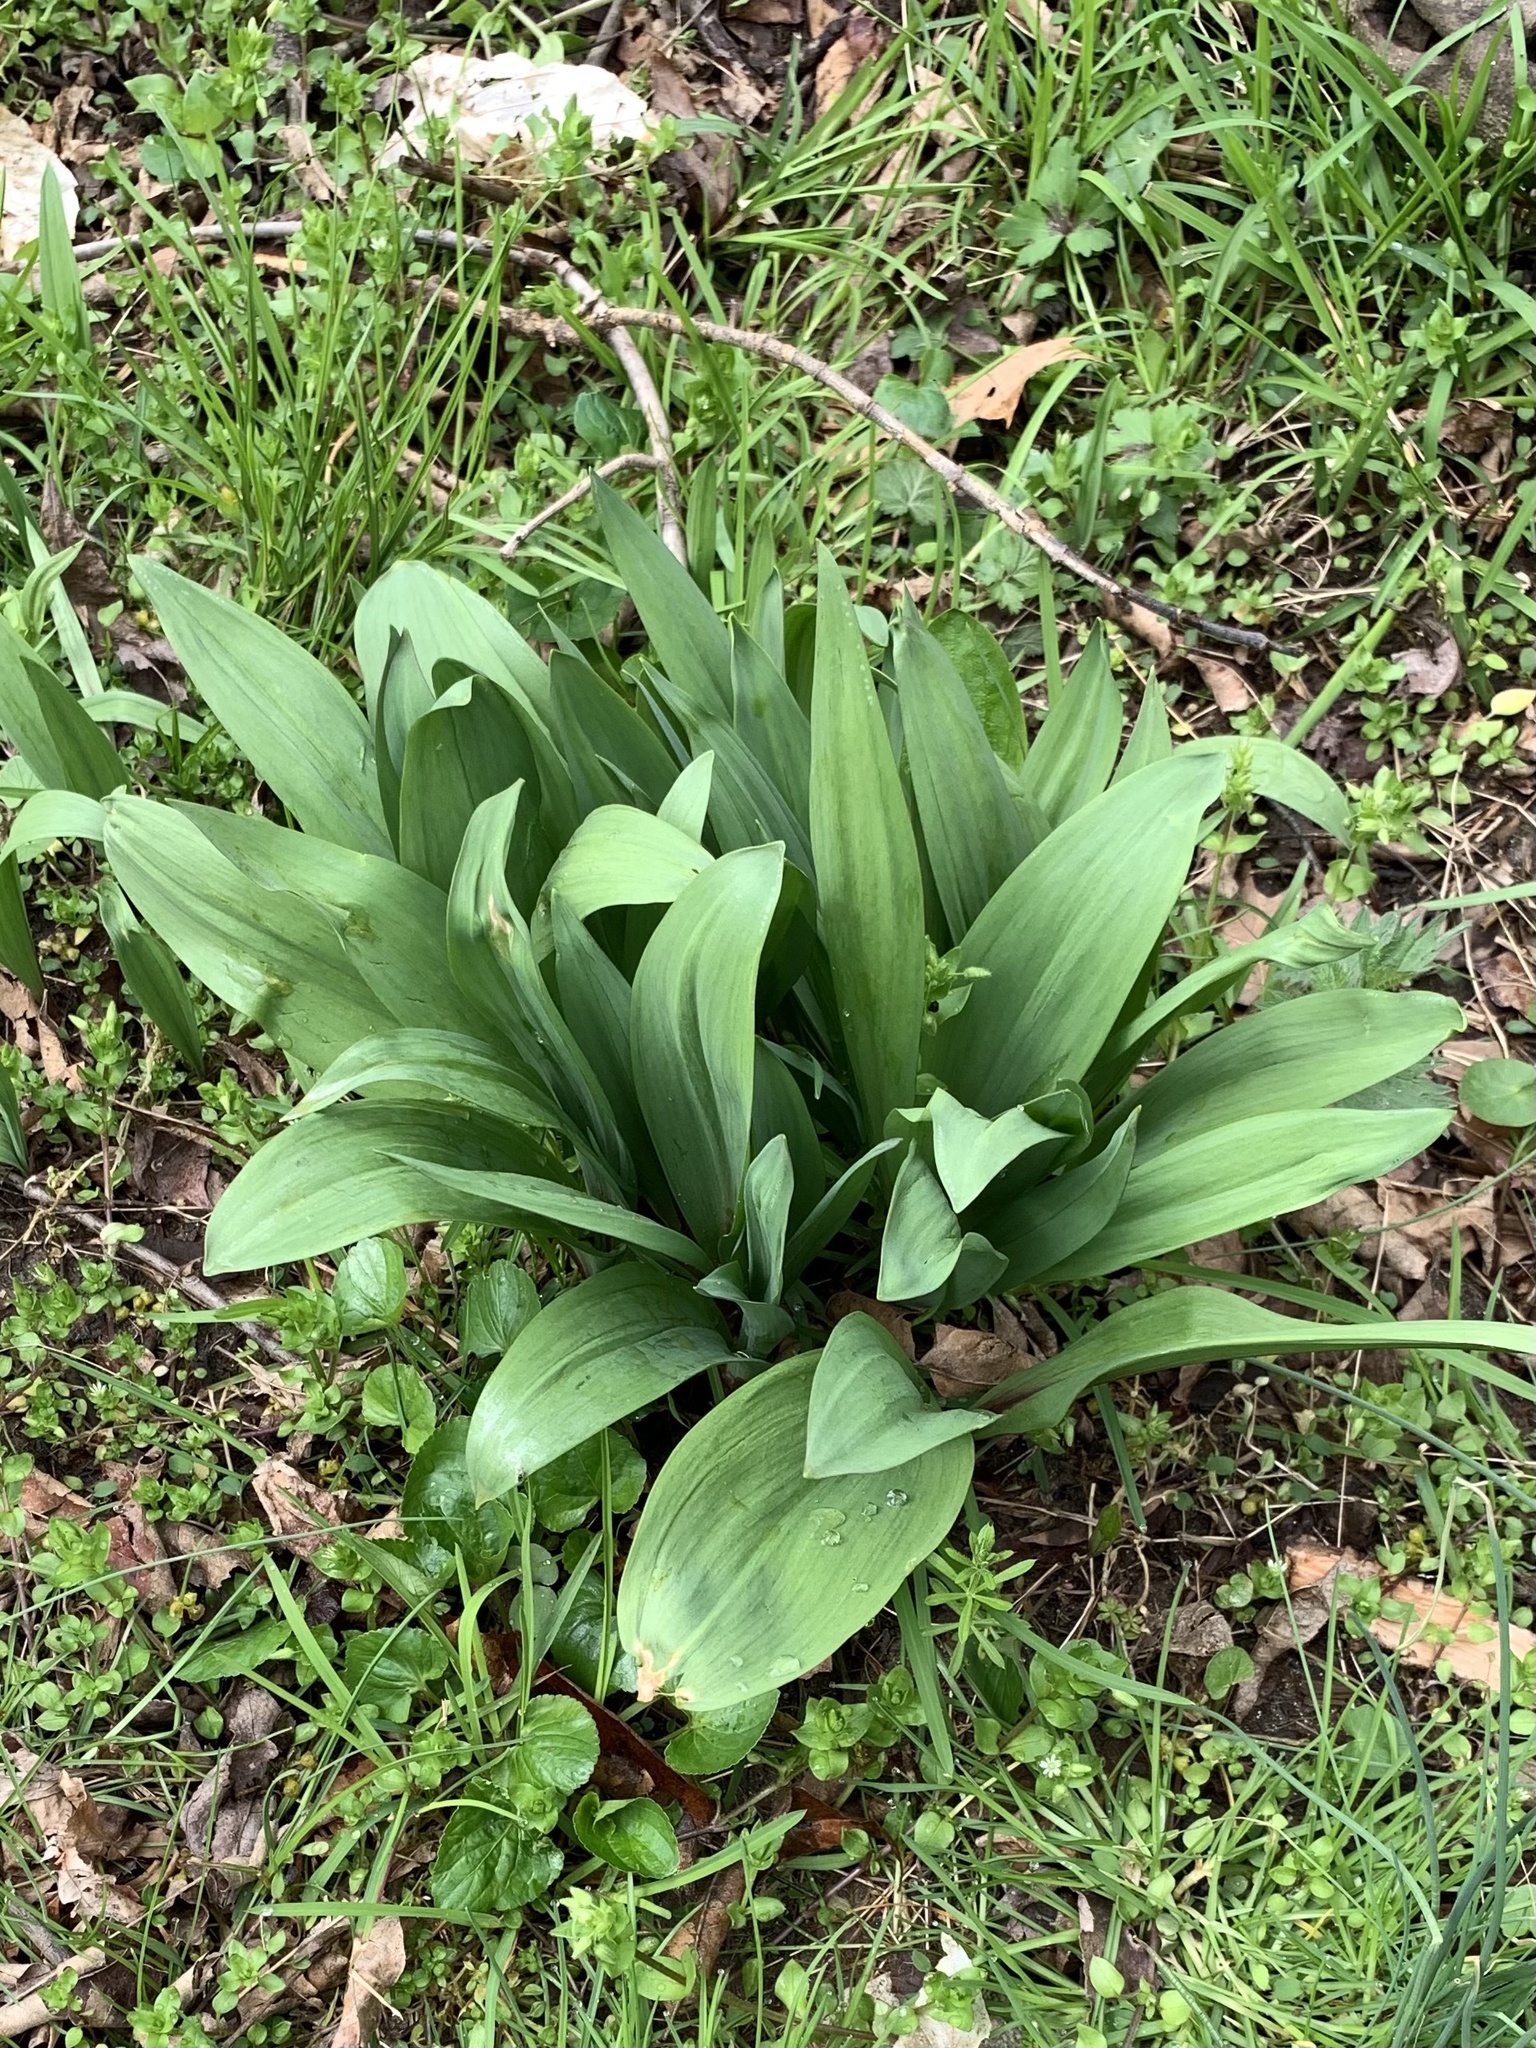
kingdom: Plantae
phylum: Tracheophyta
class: Liliopsida
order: Asparagales
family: Amaryllidaceae
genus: Allium
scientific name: Allium tricoccum
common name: Ramp
